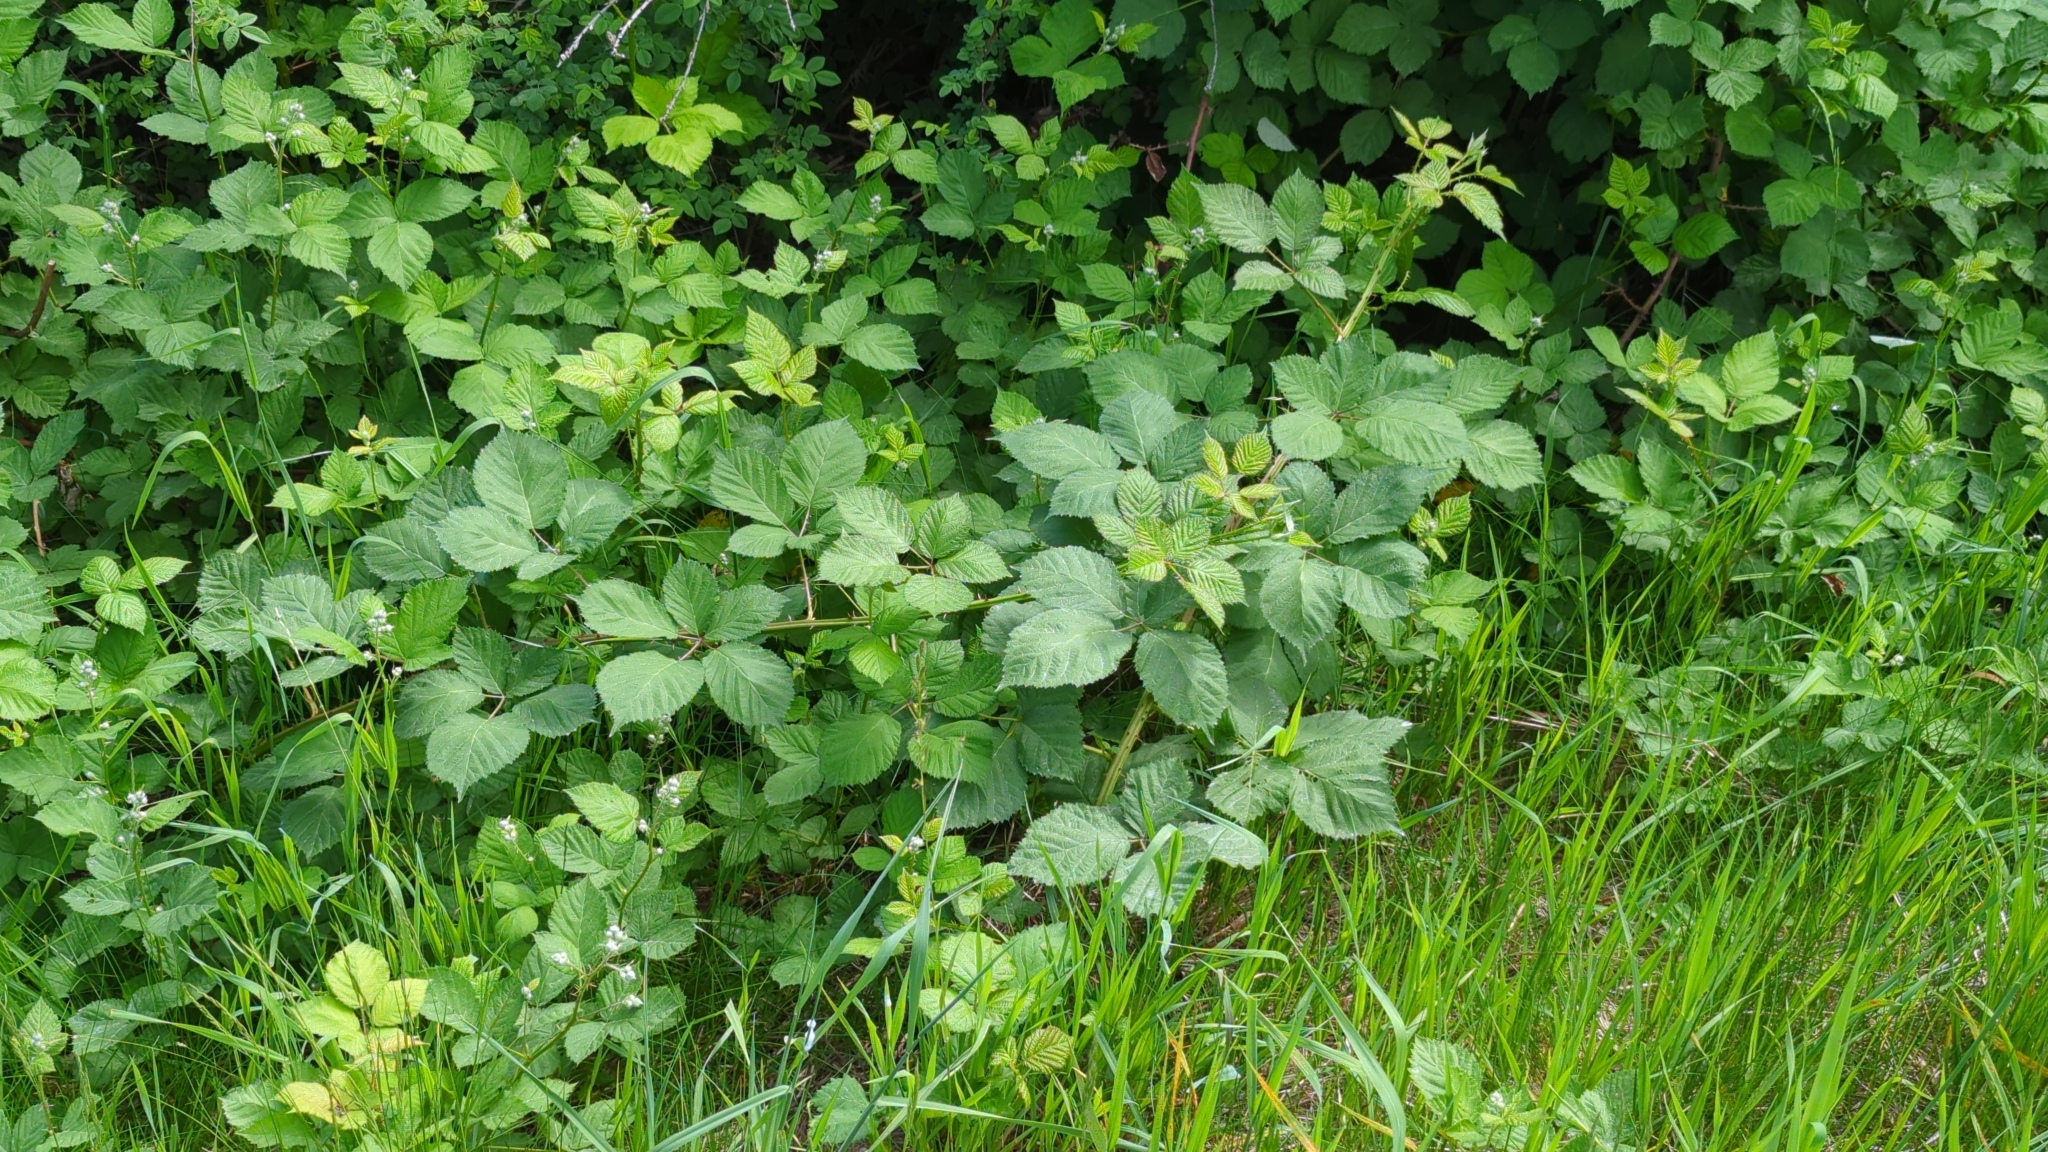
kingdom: Plantae
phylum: Tracheophyta
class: Magnoliopsida
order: Rosales
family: Rosaceae
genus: Rubus
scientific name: Rubus bifrons
